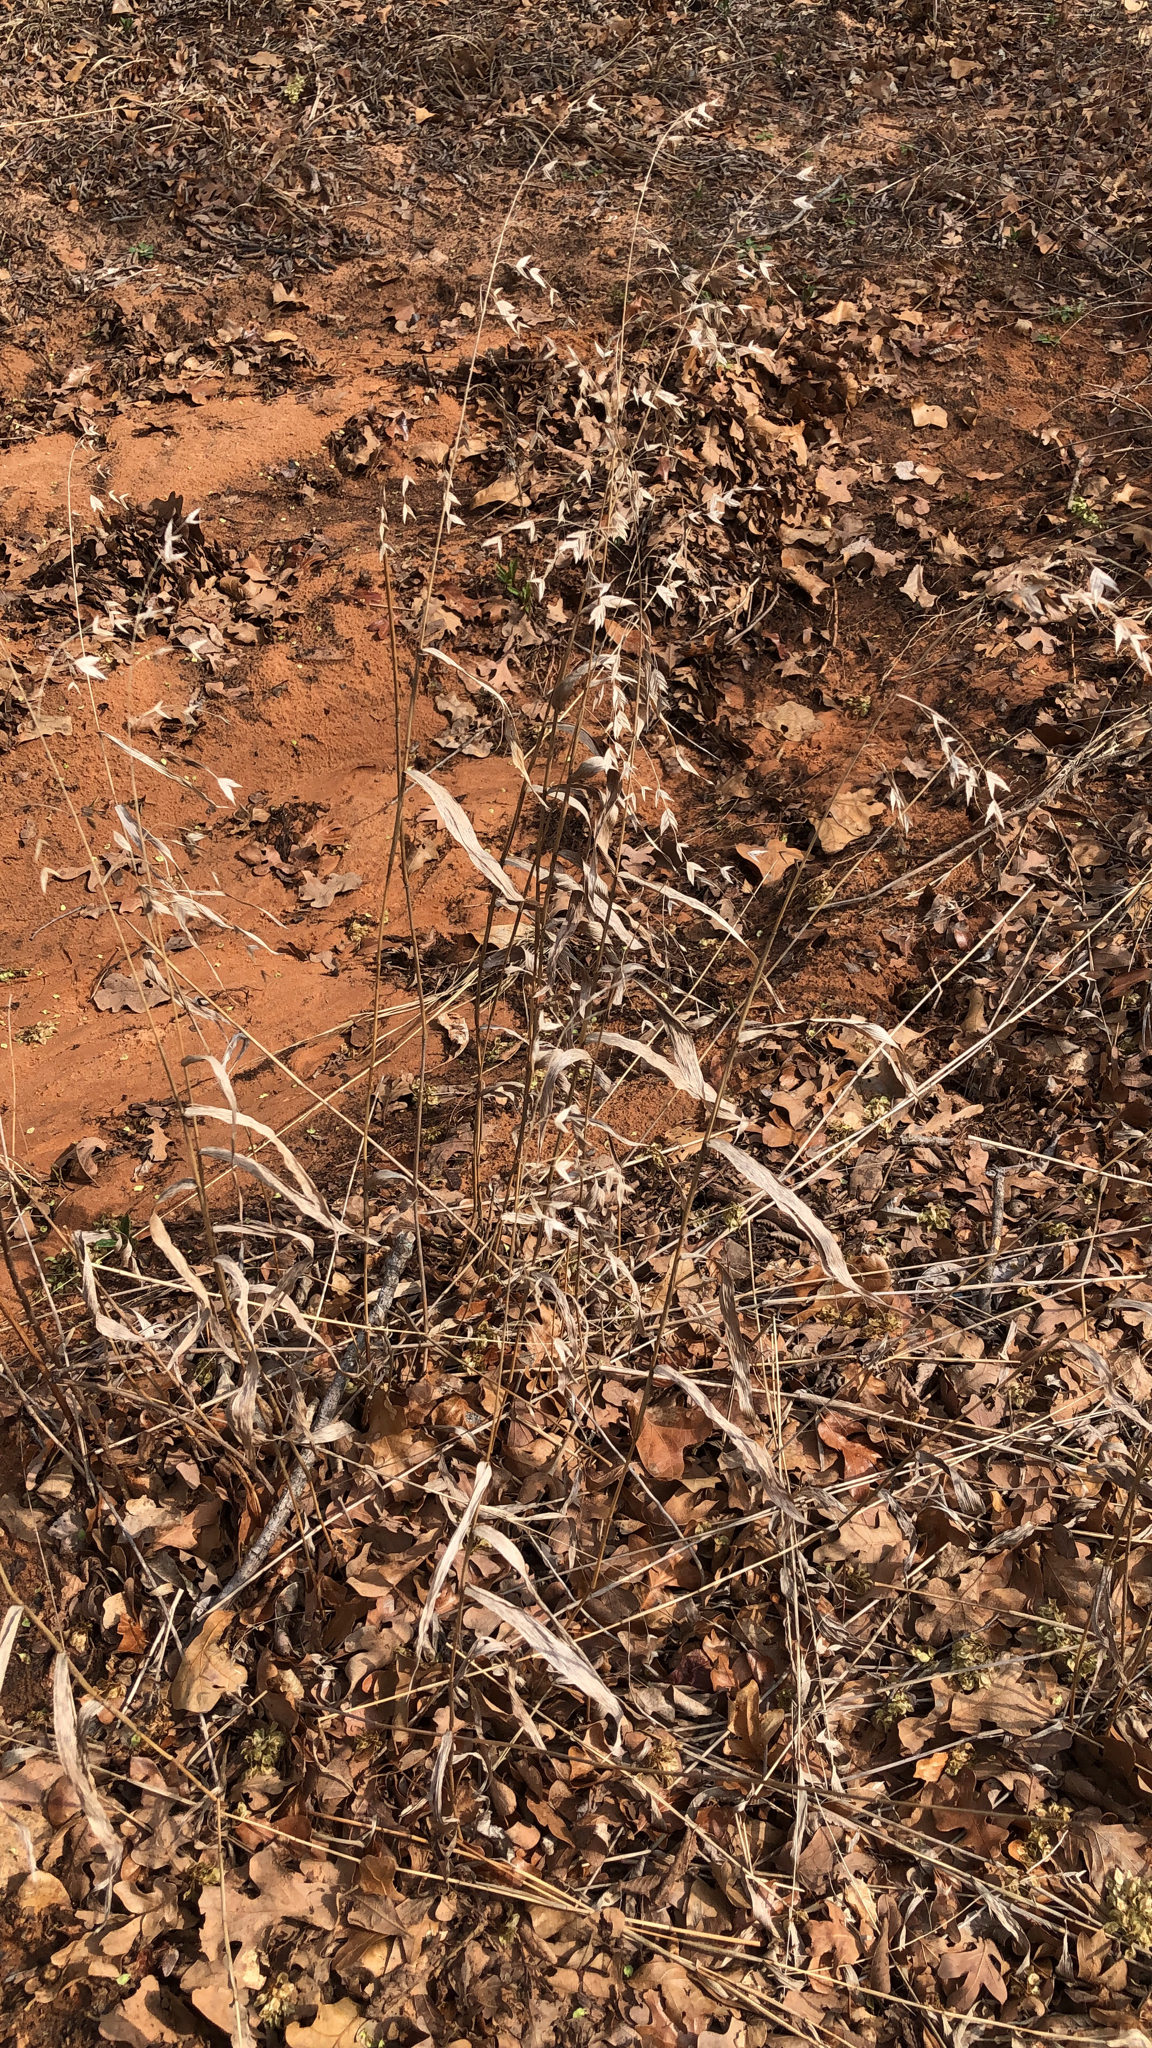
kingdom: Plantae
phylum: Tracheophyta
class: Liliopsida
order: Poales
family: Poaceae
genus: Chasmanthium
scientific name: Chasmanthium latifolium
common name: Broad-leaved chasmanthium
